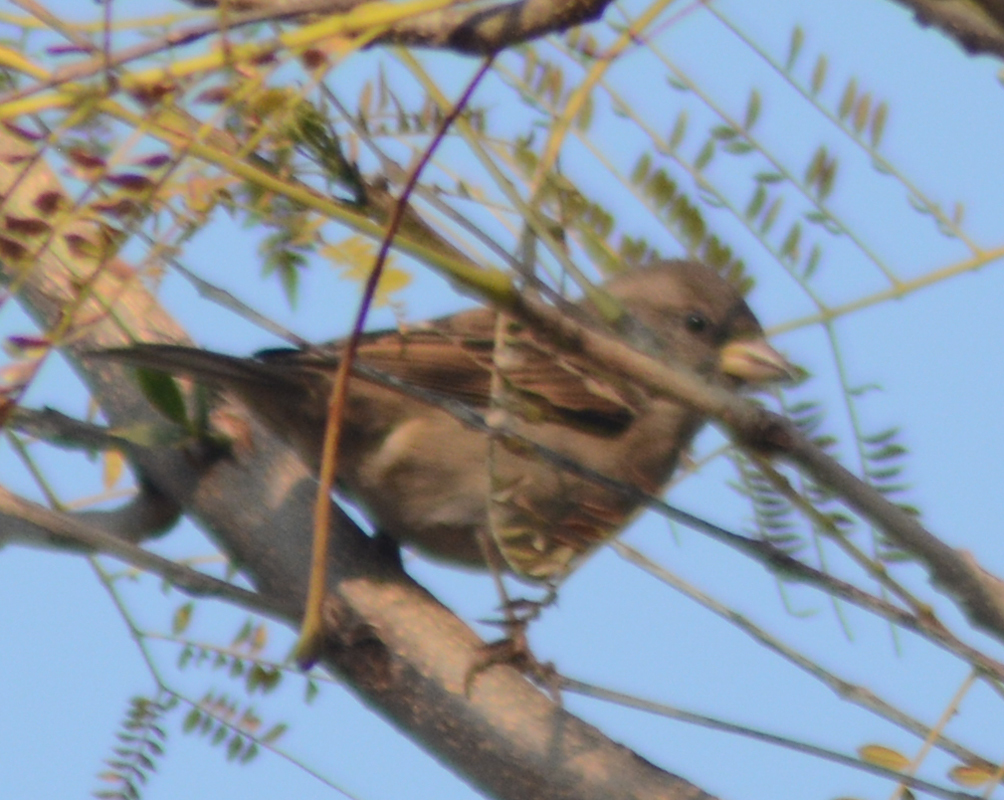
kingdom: Animalia
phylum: Chordata
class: Aves
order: Passeriformes
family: Passeridae
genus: Passer
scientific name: Passer domesticus
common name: House sparrow
